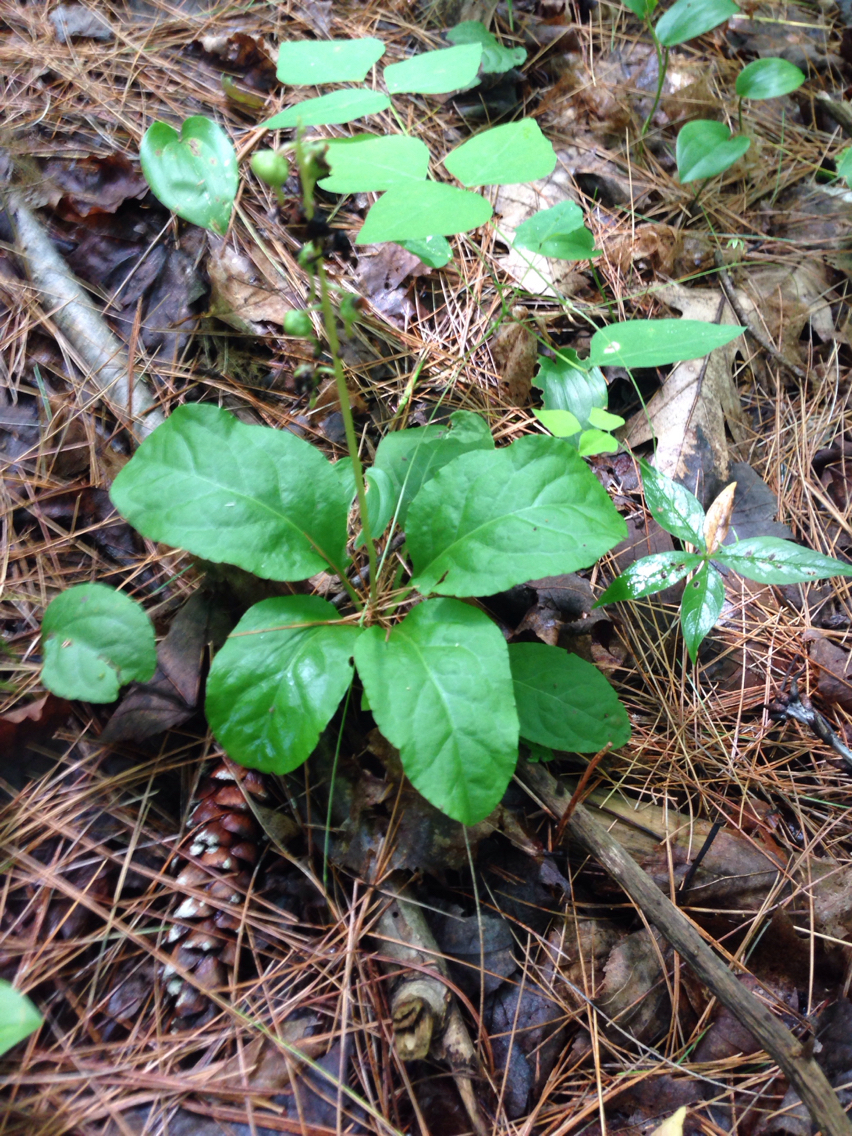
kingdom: Plantae
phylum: Tracheophyta
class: Magnoliopsida
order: Ericales
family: Ericaceae
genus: Pyrola
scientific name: Pyrola elliptica
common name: Shinleaf
